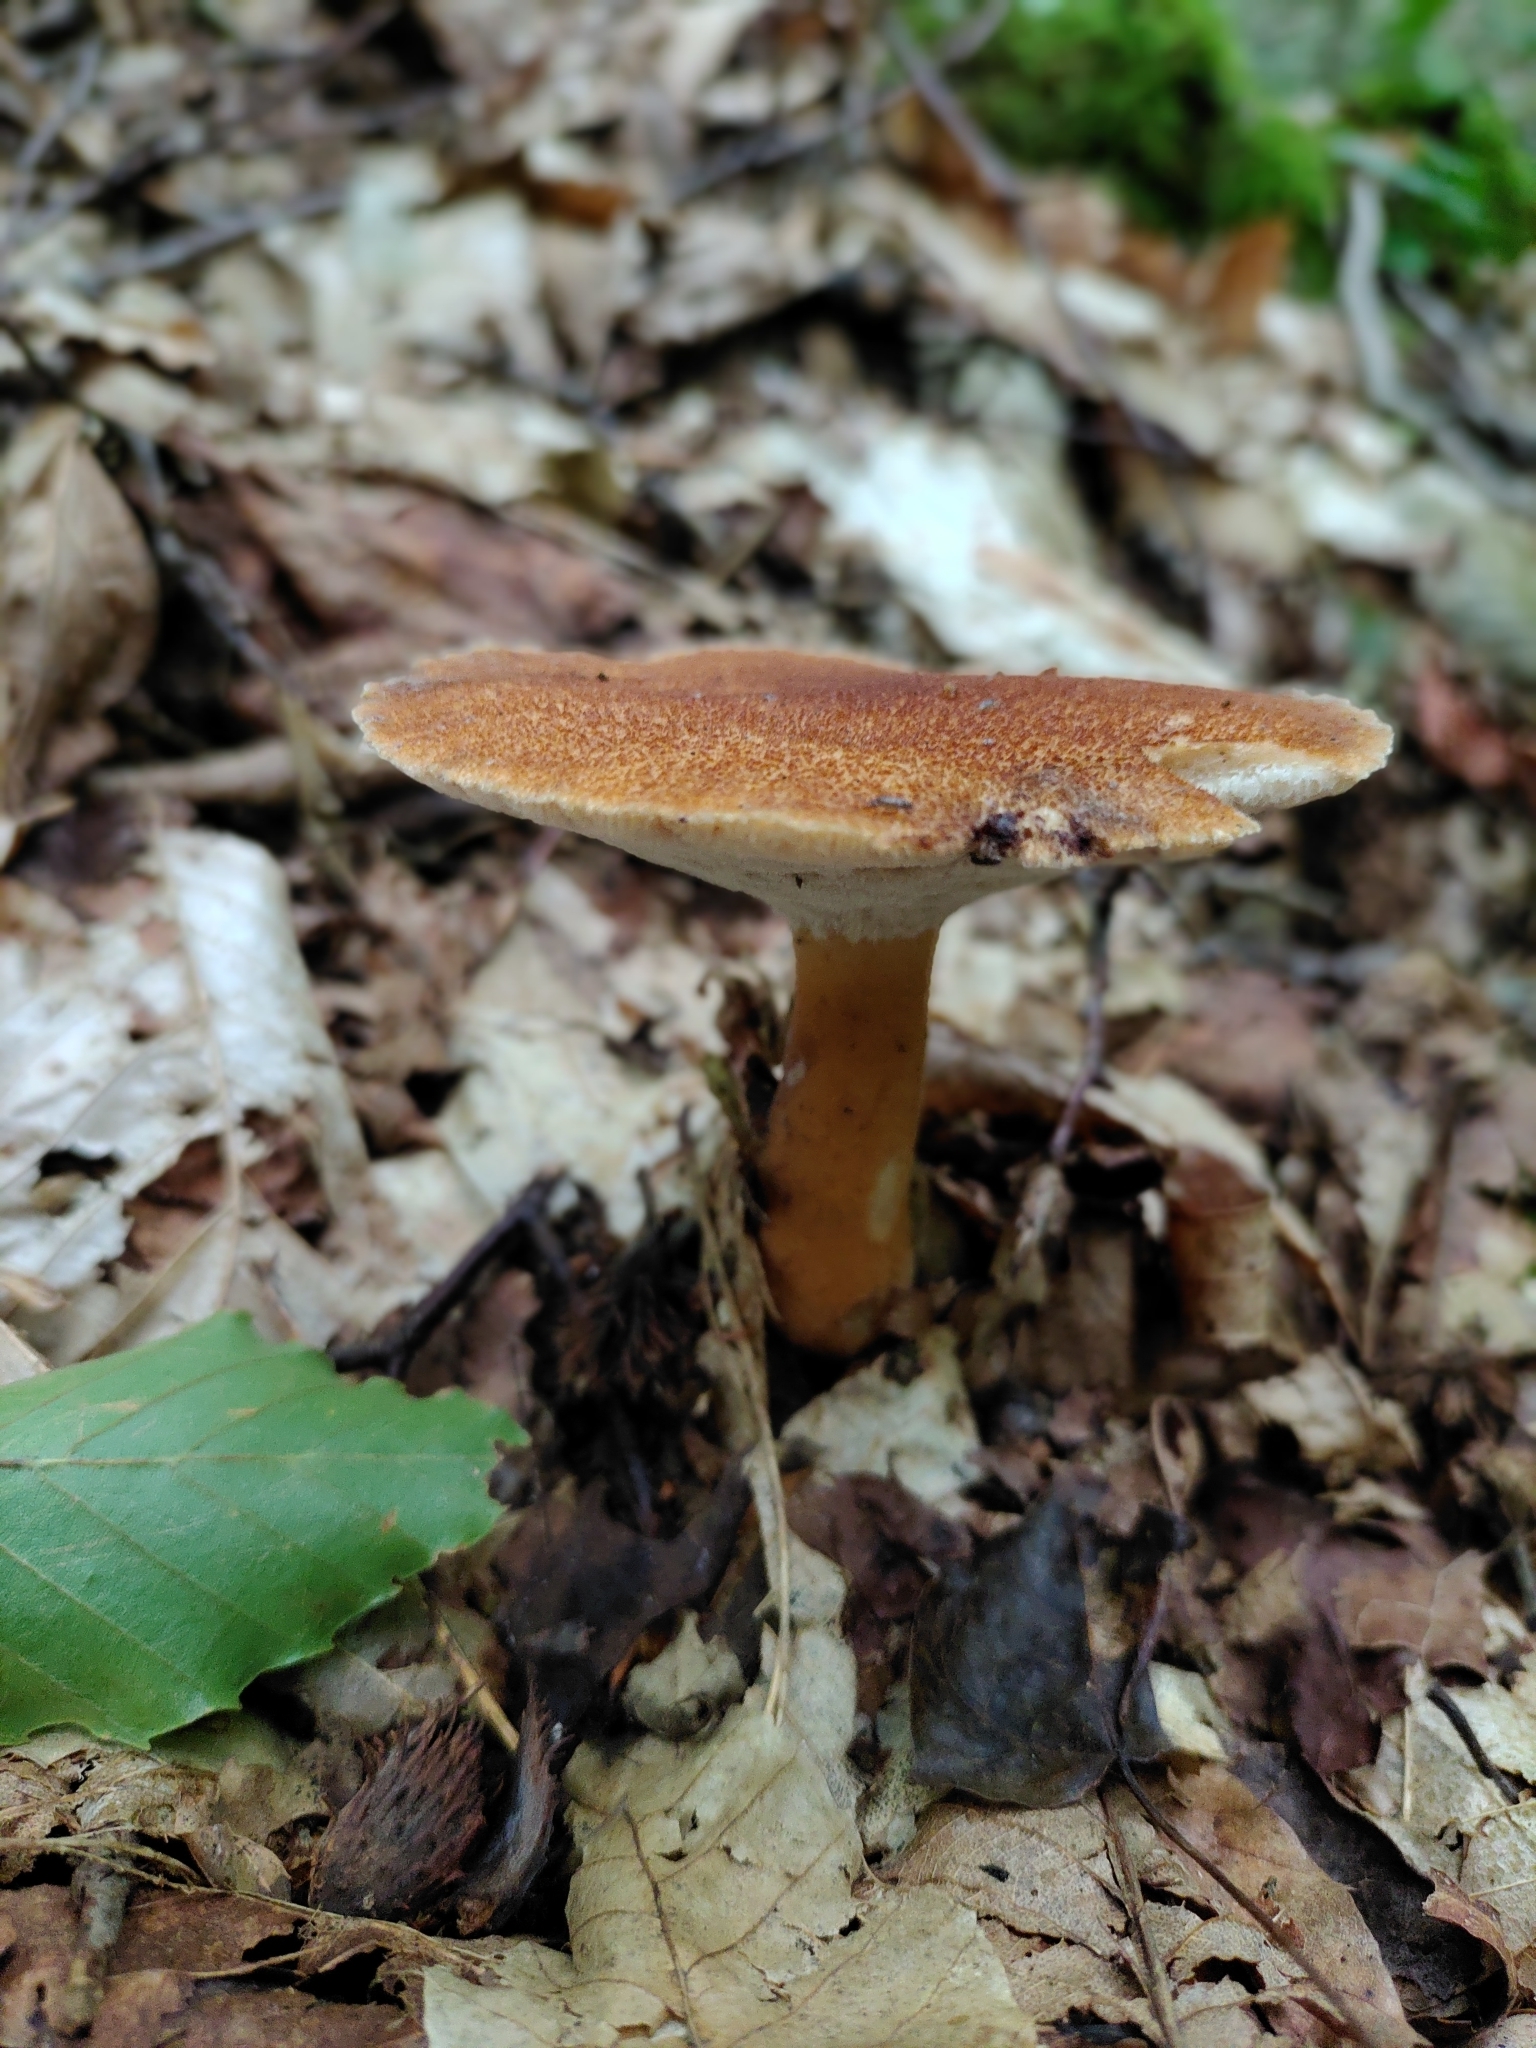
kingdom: Fungi
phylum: Basidiomycota
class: Agaricomycetes
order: Polyporales
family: Polyporaceae
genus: Polyporus
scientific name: Polyporus radicatus
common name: Rooting polypore
